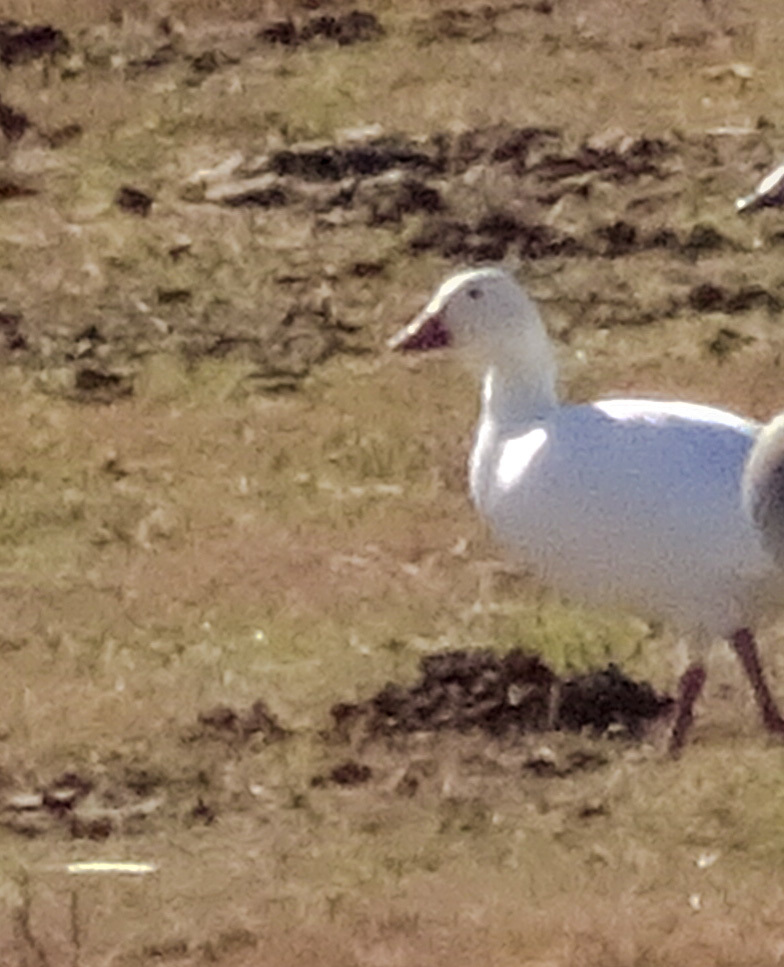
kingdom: Animalia
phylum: Chordata
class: Aves
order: Anseriformes
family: Anatidae
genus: Anser
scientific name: Anser rossii
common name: Ross's goose
